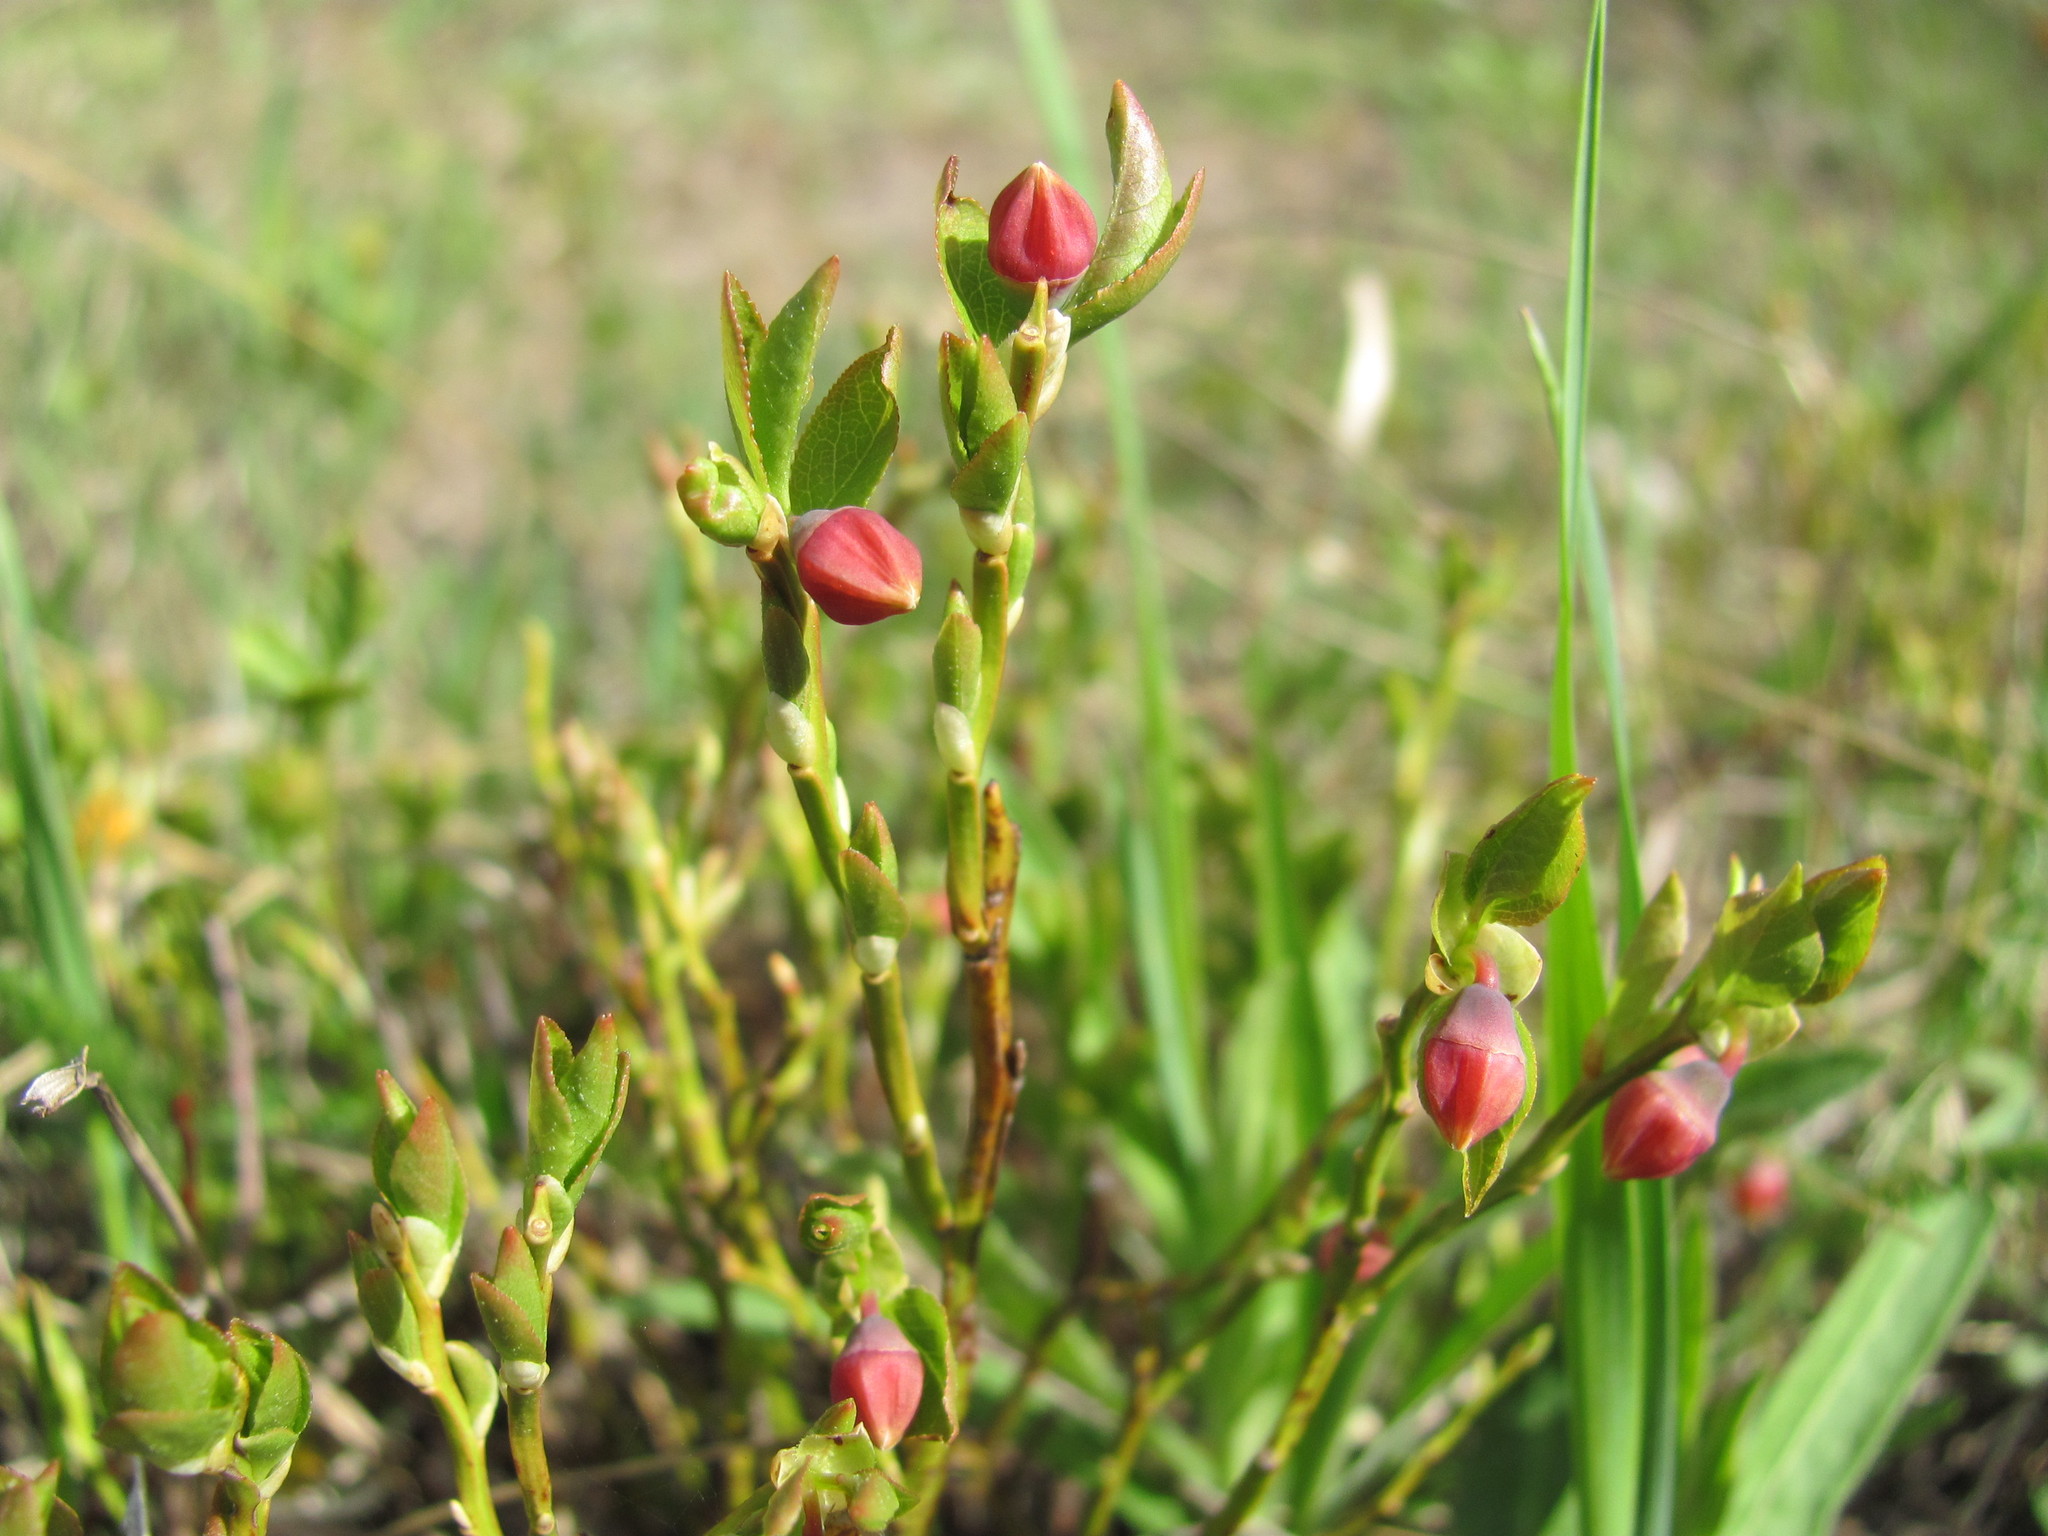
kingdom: Plantae
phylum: Tracheophyta
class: Magnoliopsida
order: Ericales
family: Ericaceae
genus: Vaccinium
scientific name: Vaccinium myrtillus
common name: Bilberry
